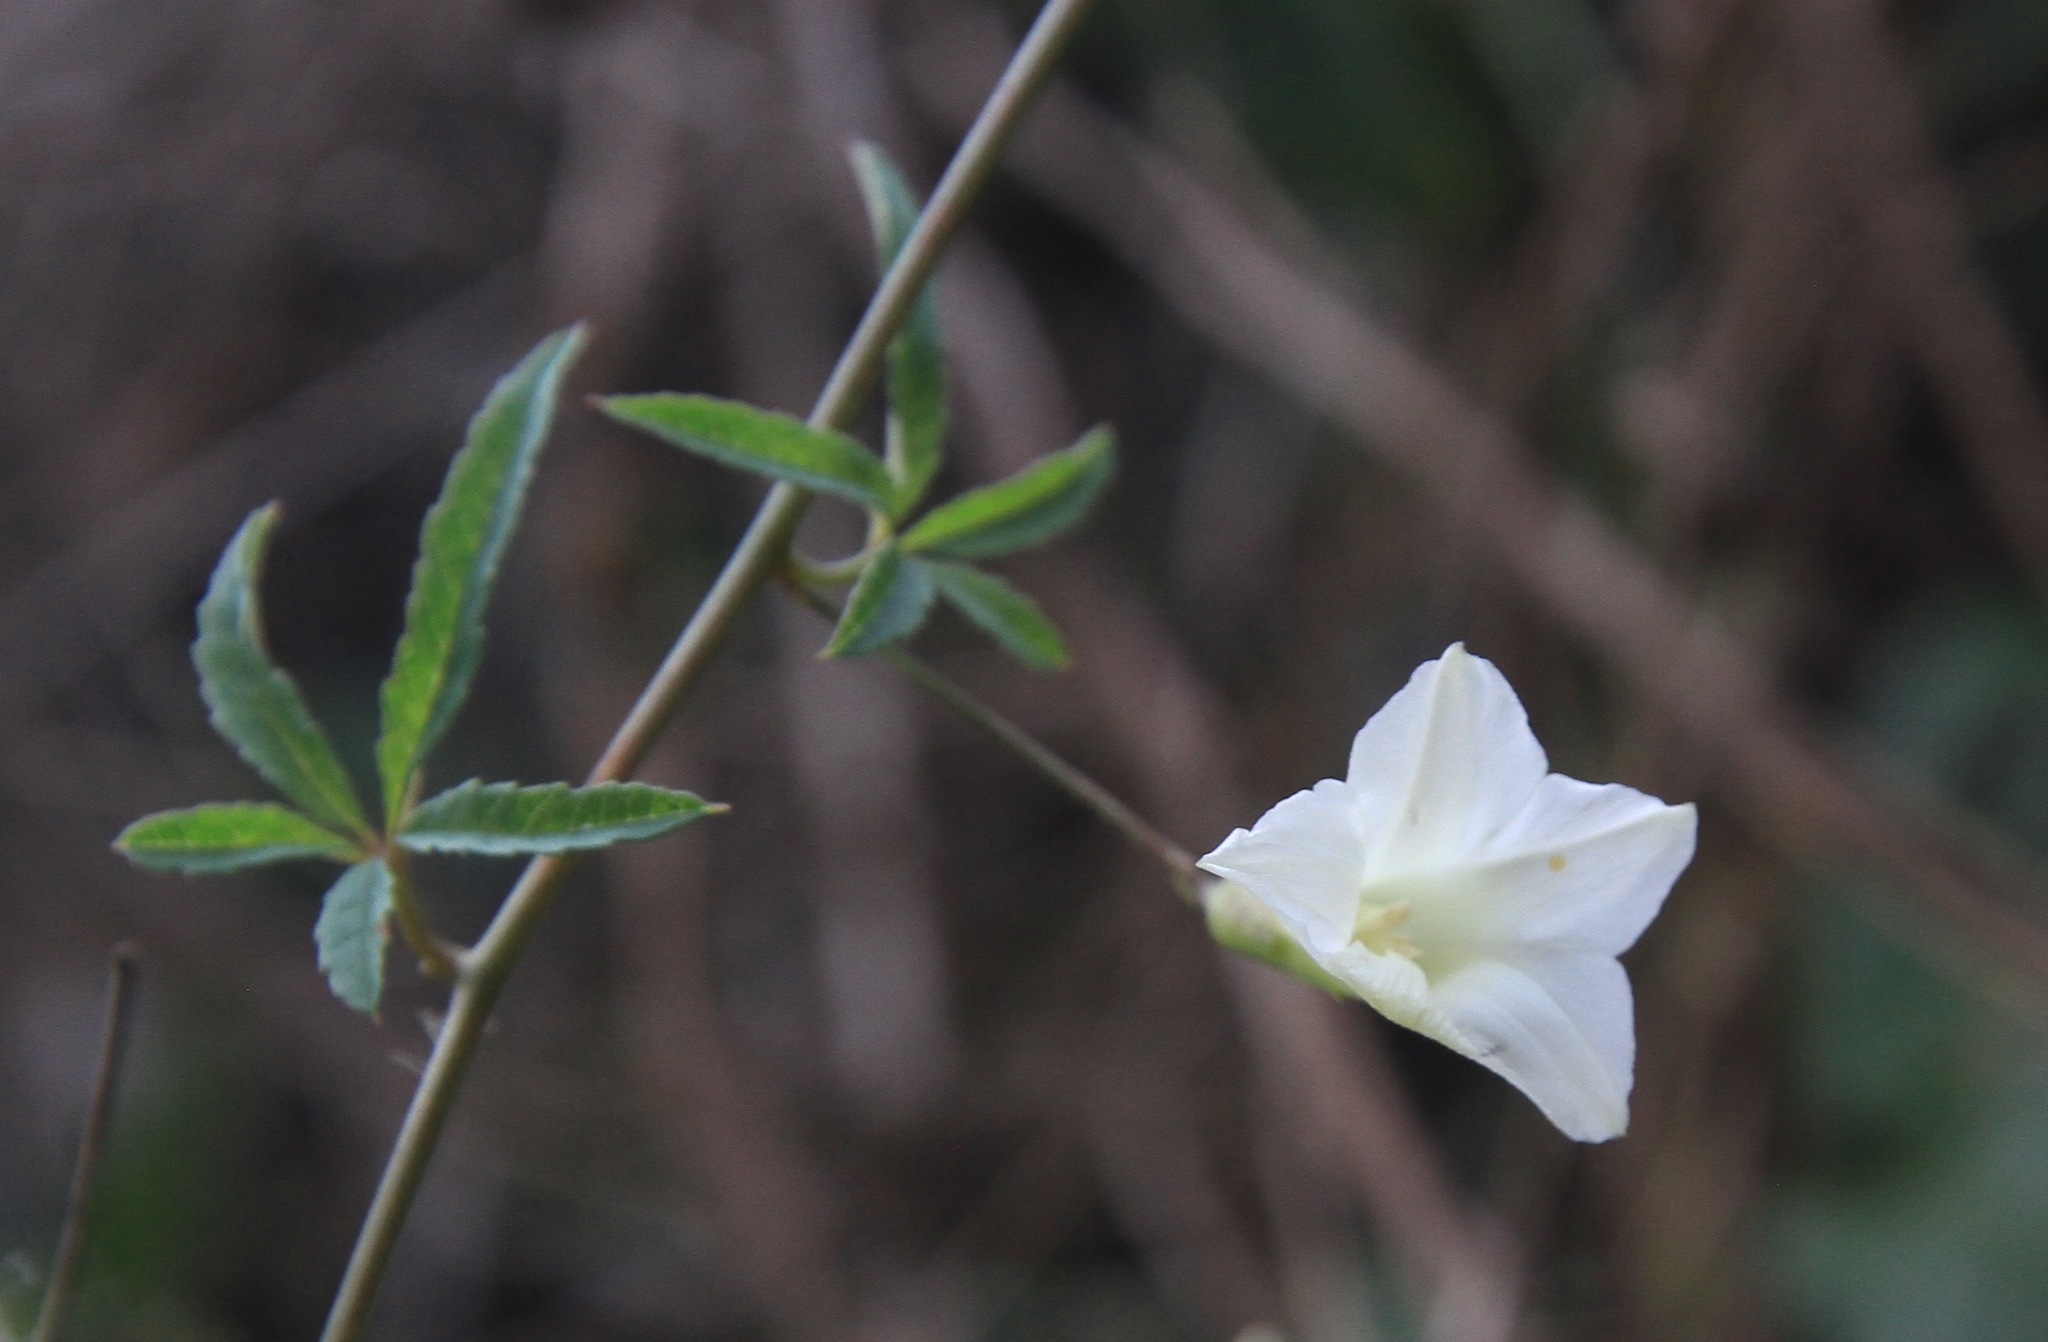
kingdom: Plantae
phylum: Tracheophyta
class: Magnoliopsida
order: Solanales
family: Convolvulaceae
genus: Distimake
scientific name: Distimake quinquefolius
